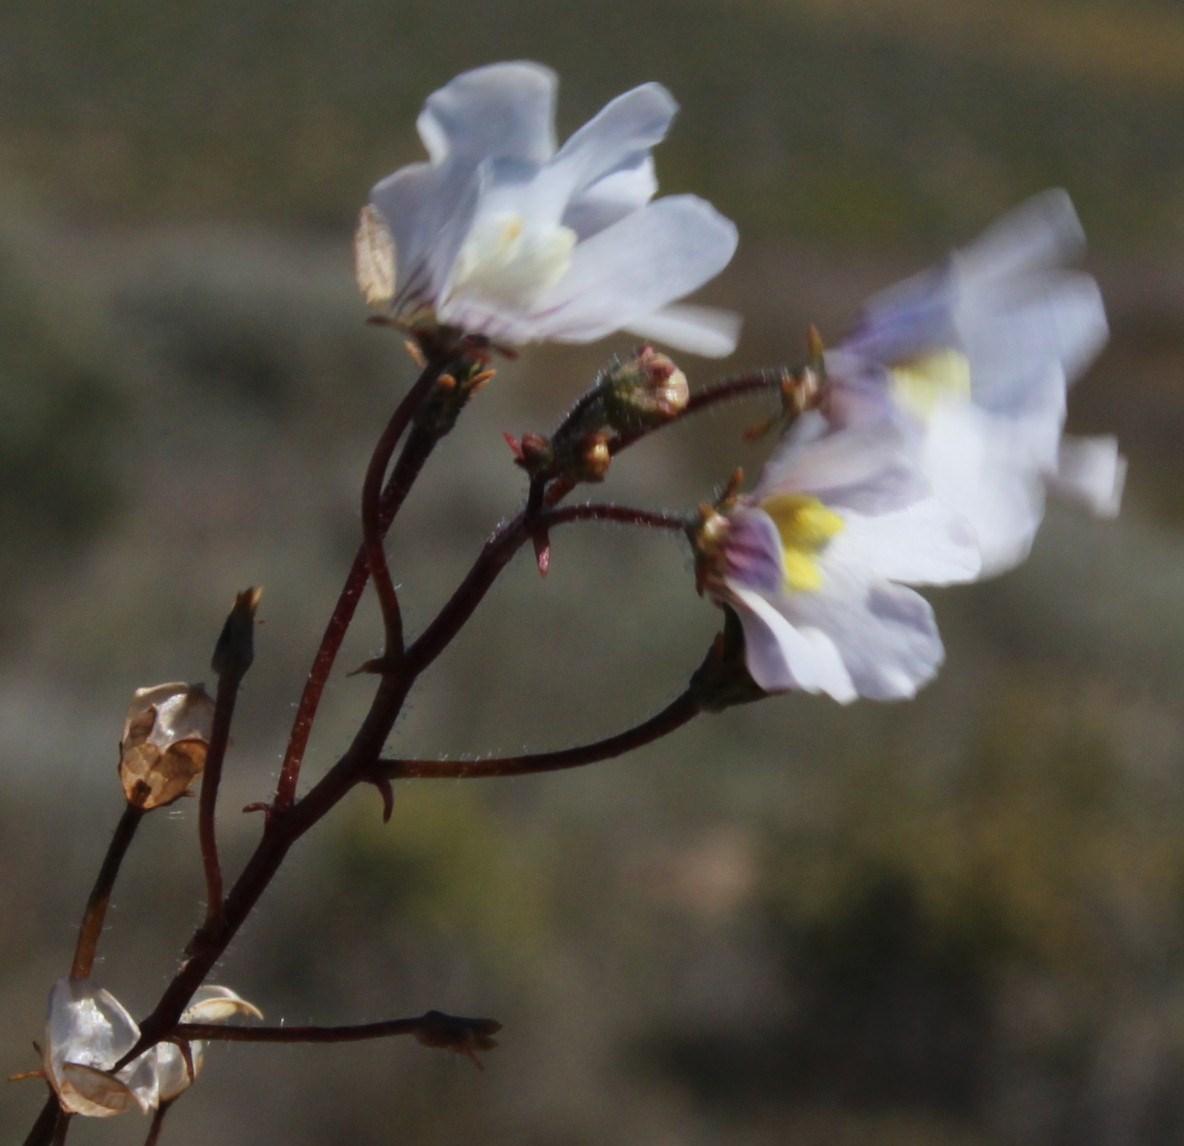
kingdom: Plantae
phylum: Tracheophyta
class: Magnoliopsida
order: Lamiales
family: Scrophulariaceae
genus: Nemesia
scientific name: Nemesia bicornis
